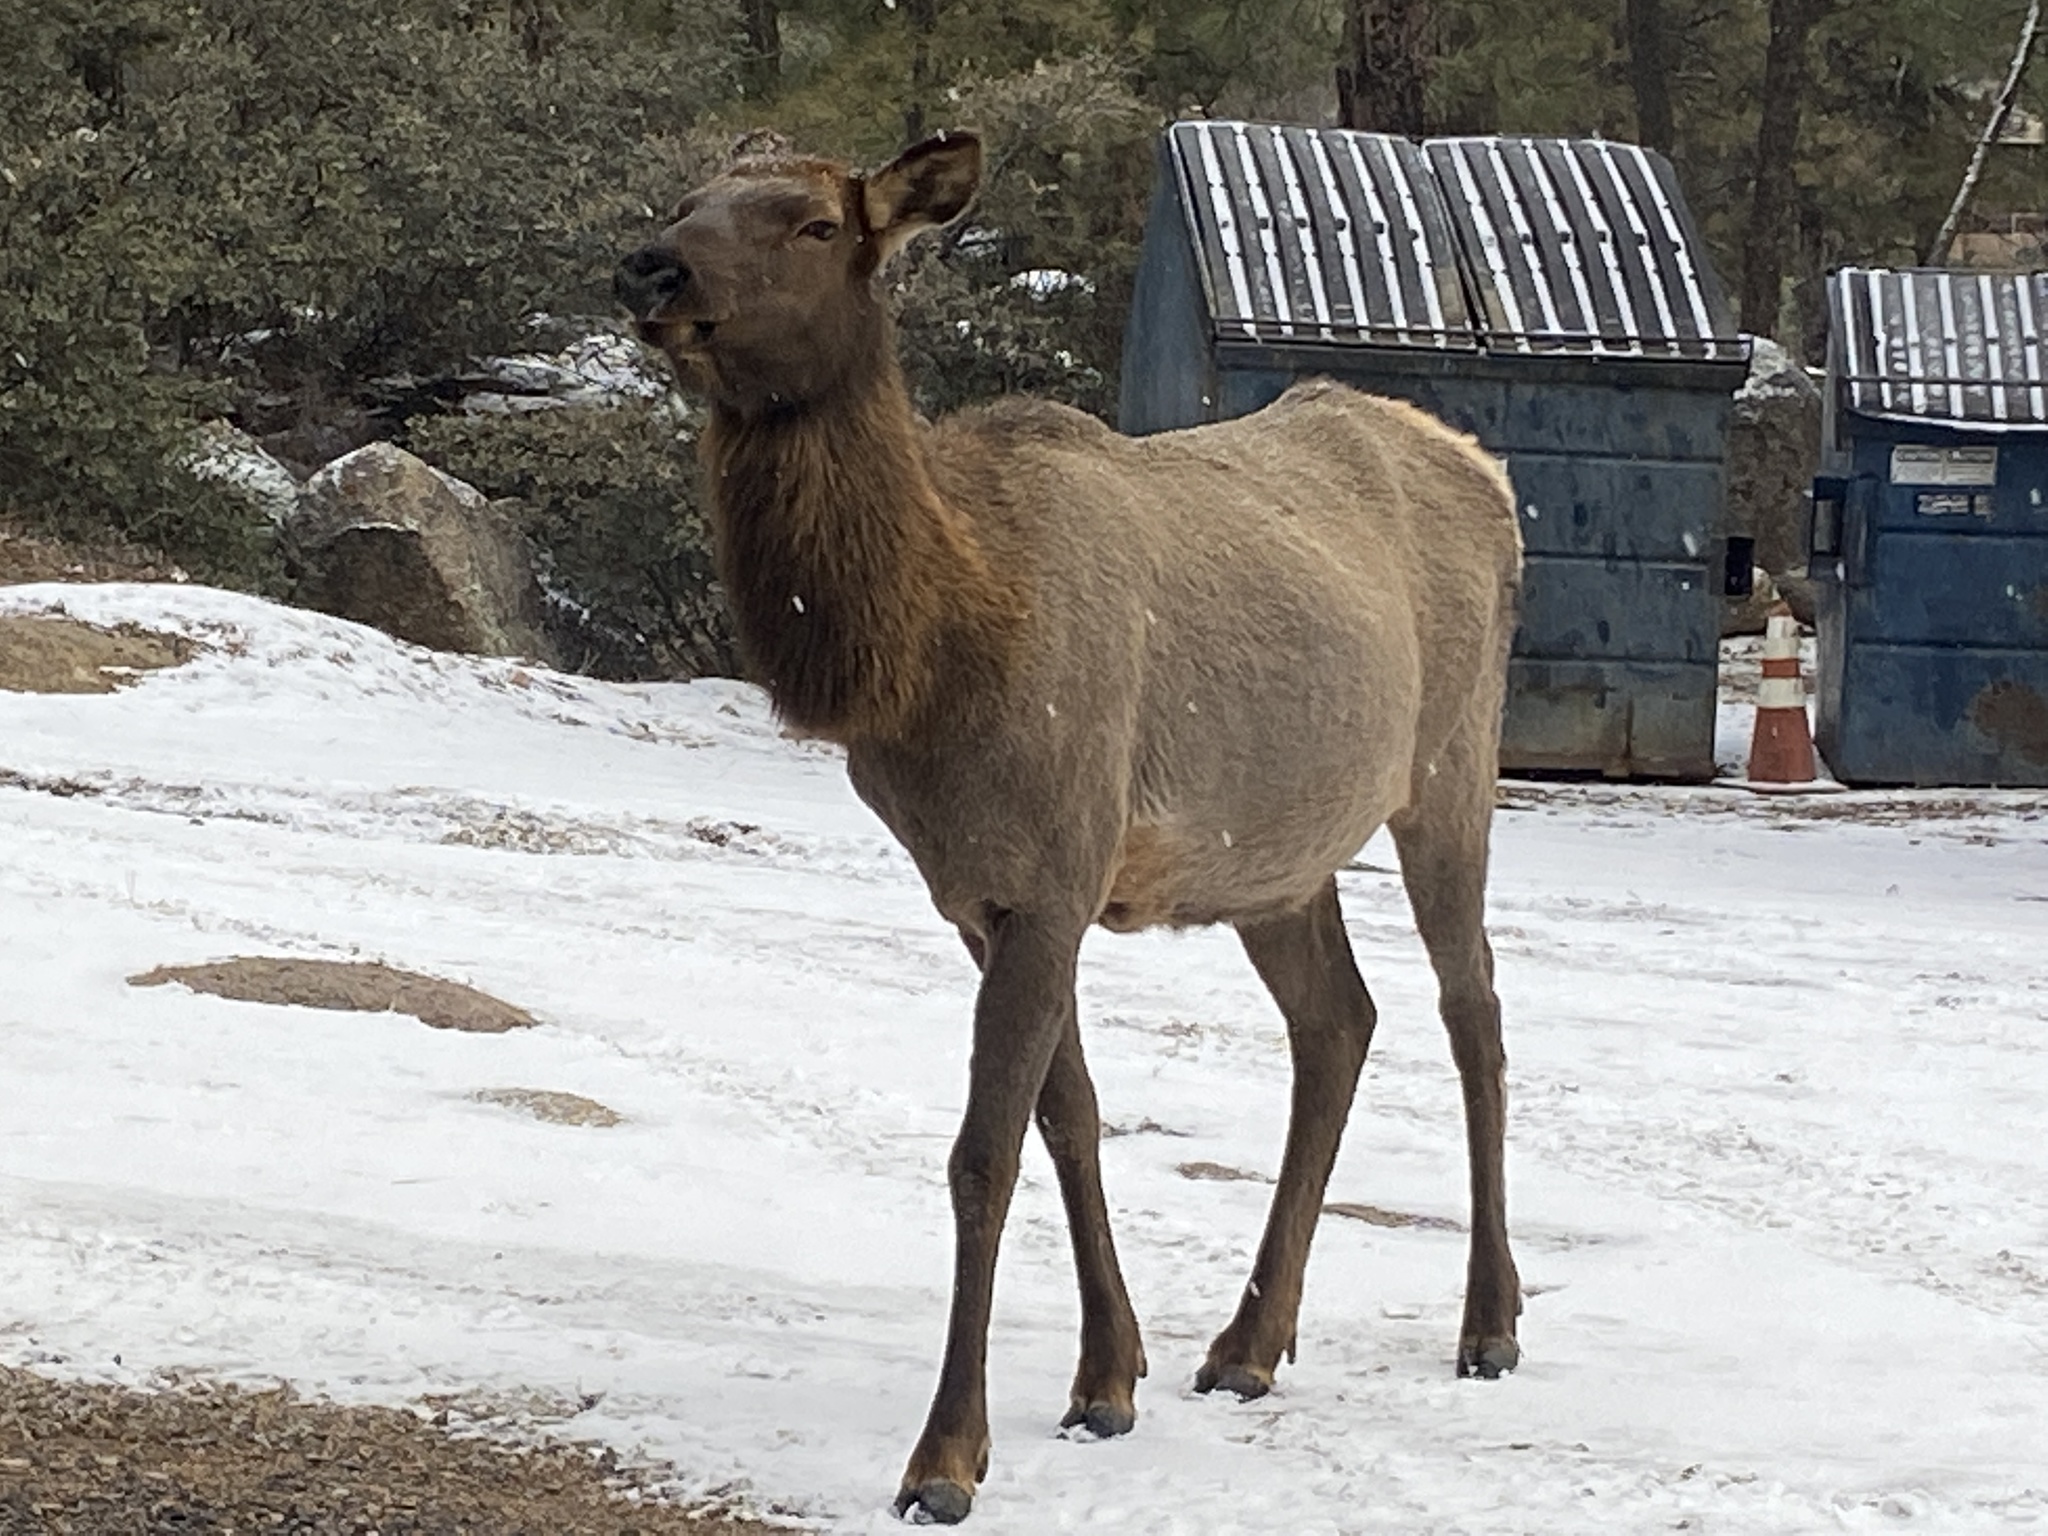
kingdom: Animalia
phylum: Chordata
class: Mammalia
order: Artiodactyla
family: Cervidae
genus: Cervus
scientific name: Cervus elaphus
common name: Red deer
